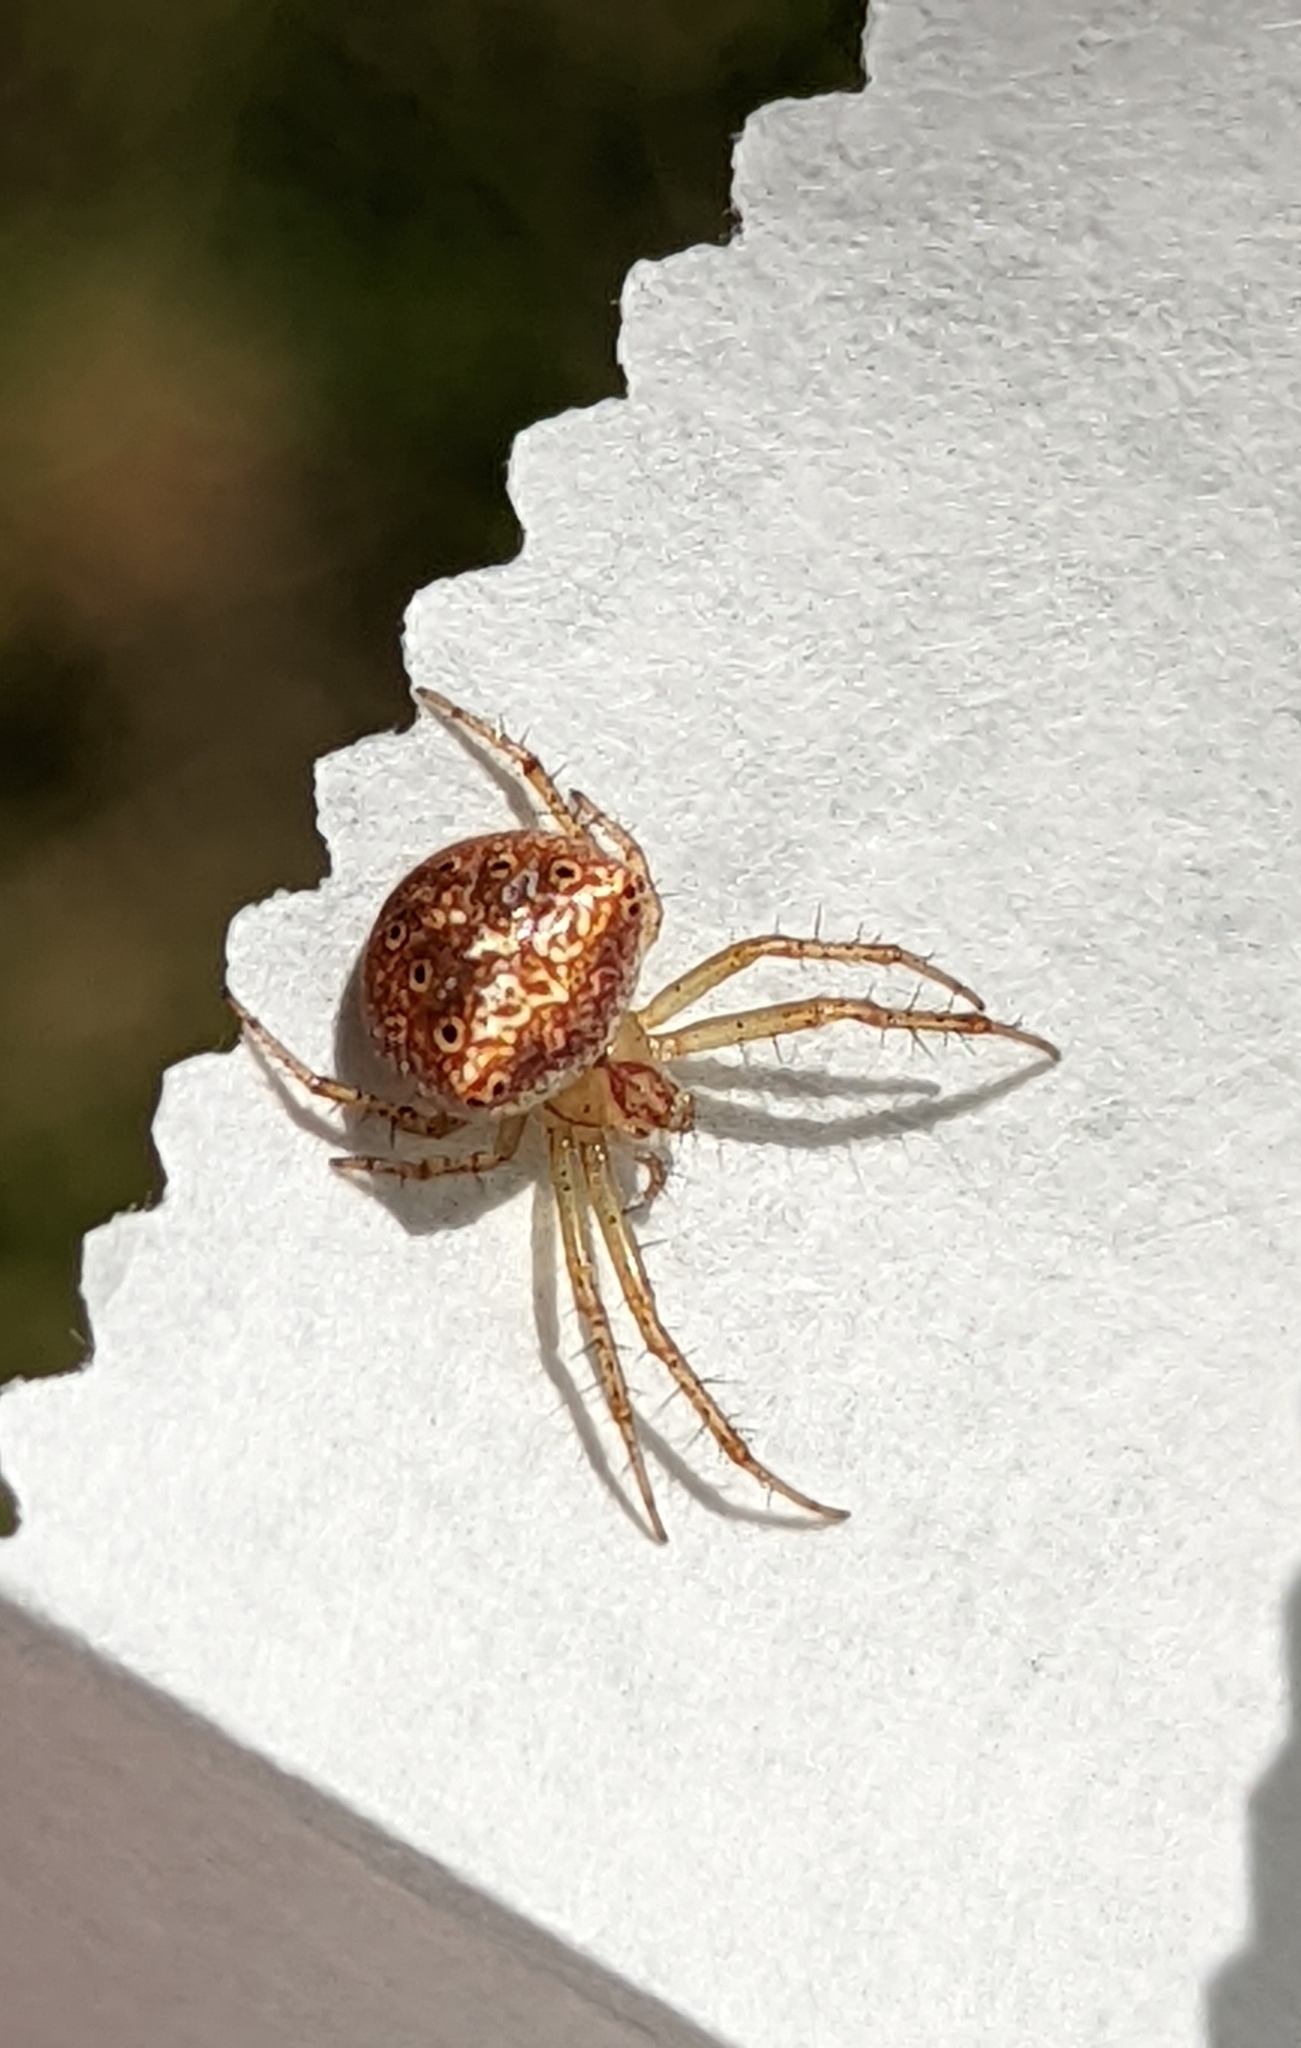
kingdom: Animalia
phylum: Arthropoda
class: Arachnida
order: Araneae
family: Araneidae
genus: Araneus
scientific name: Araneus miniatus
